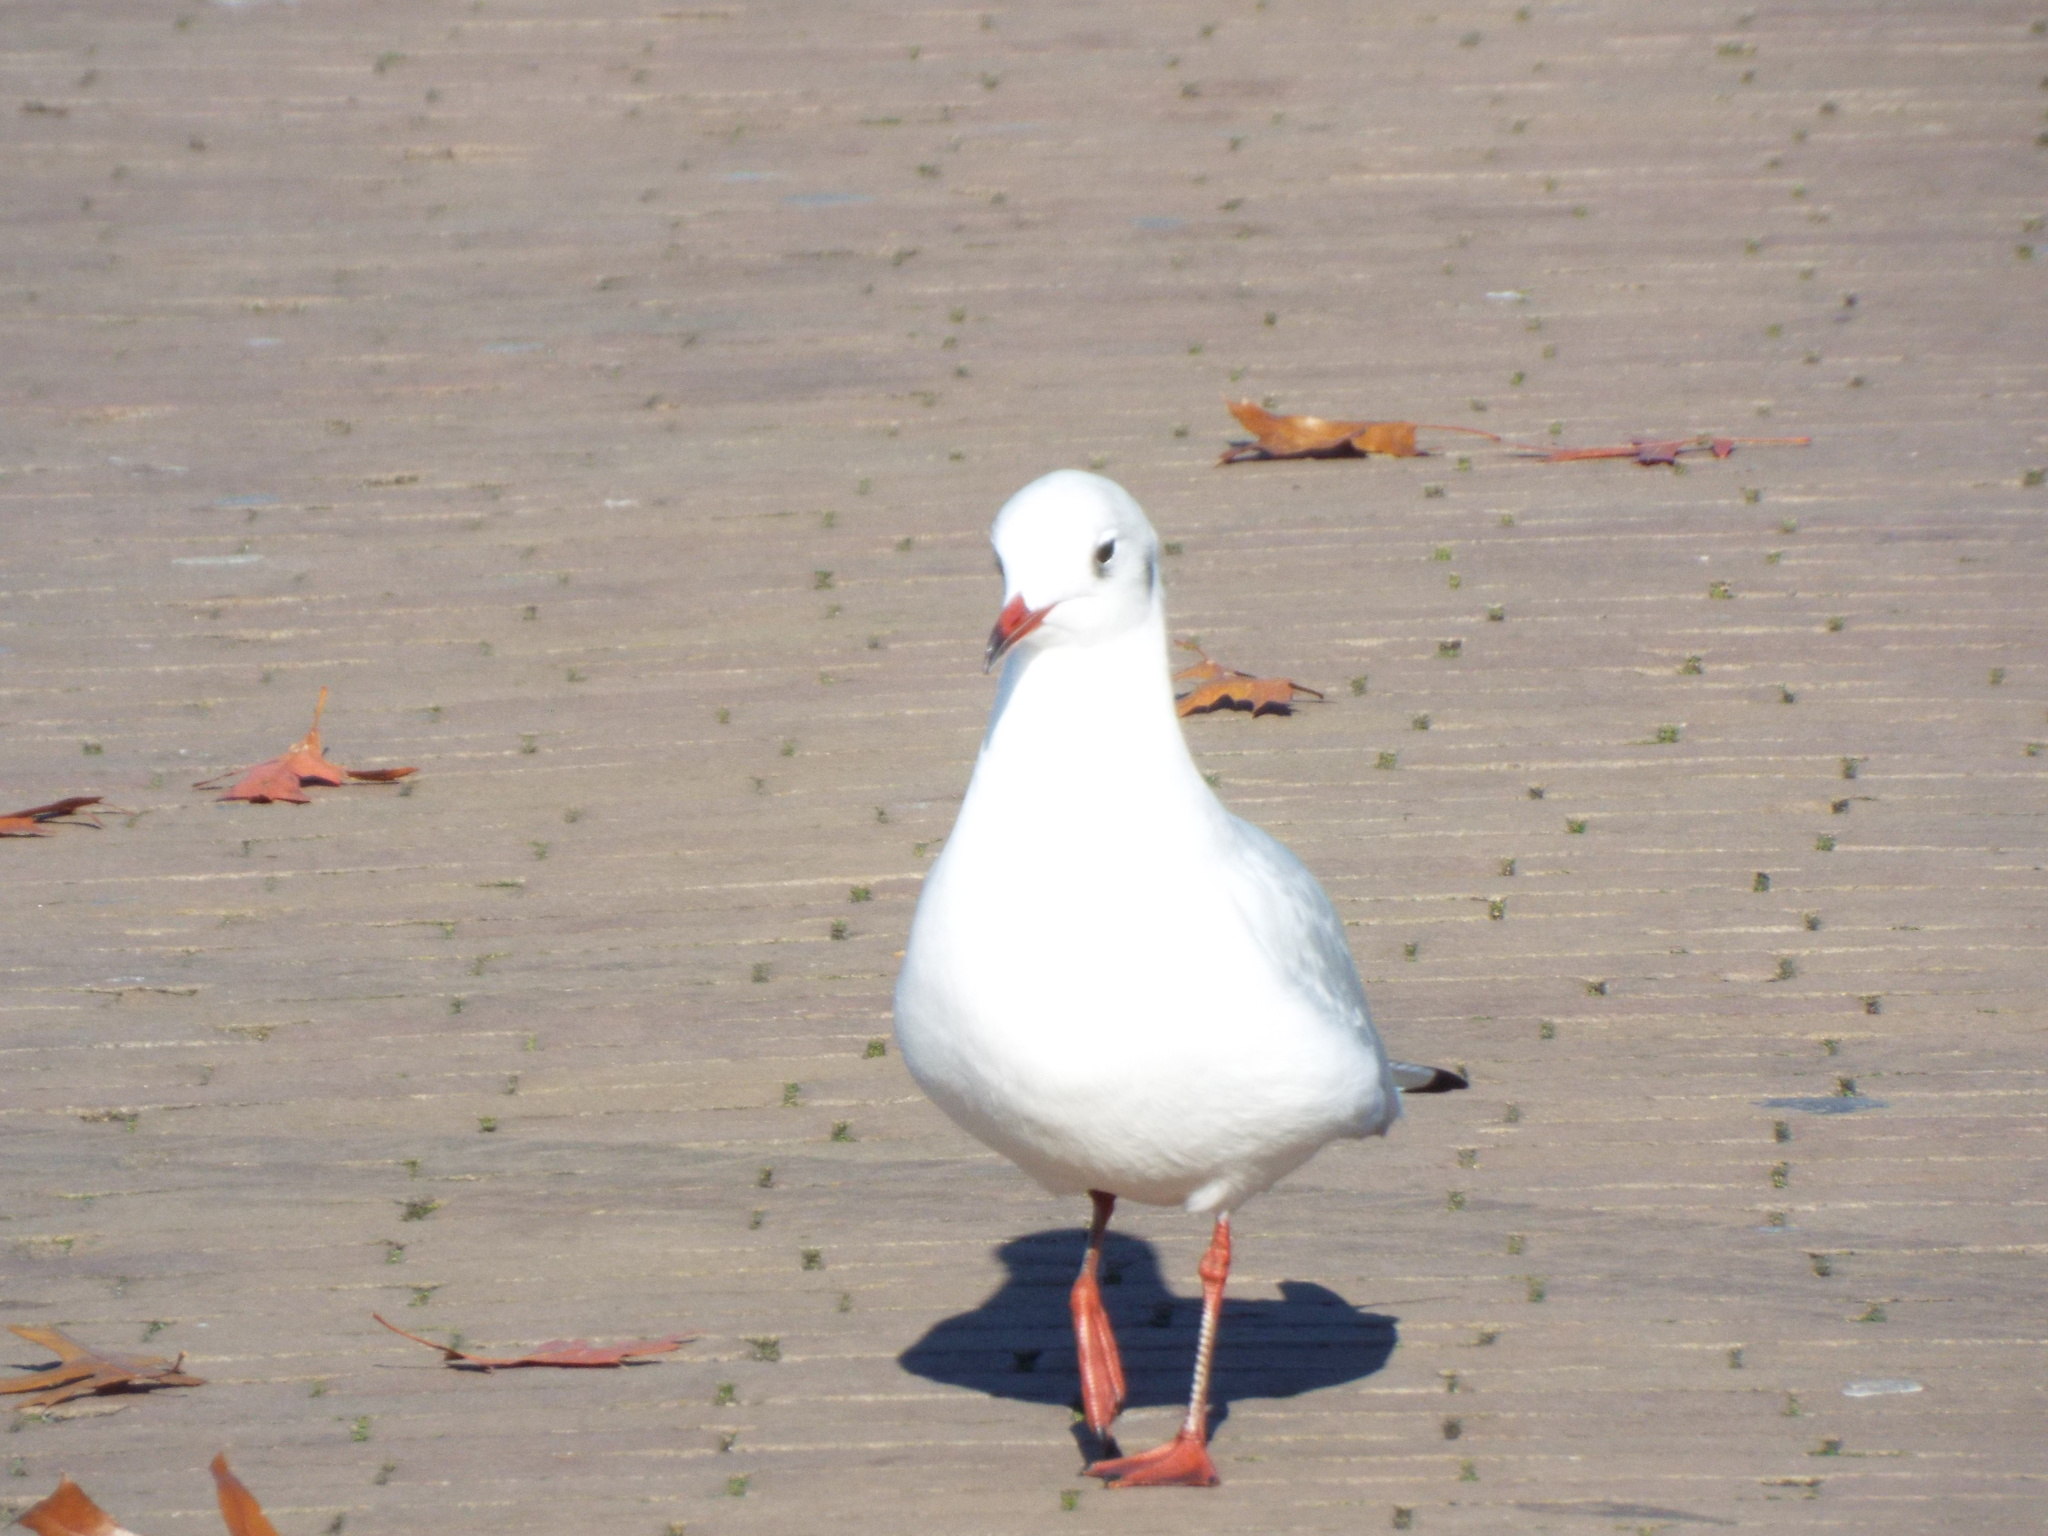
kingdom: Animalia
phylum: Chordata
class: Aves
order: Charadriiformes
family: Laridae
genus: Chroicocephalus
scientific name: Chroicocephalus ridibundus
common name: Black-headed gull
